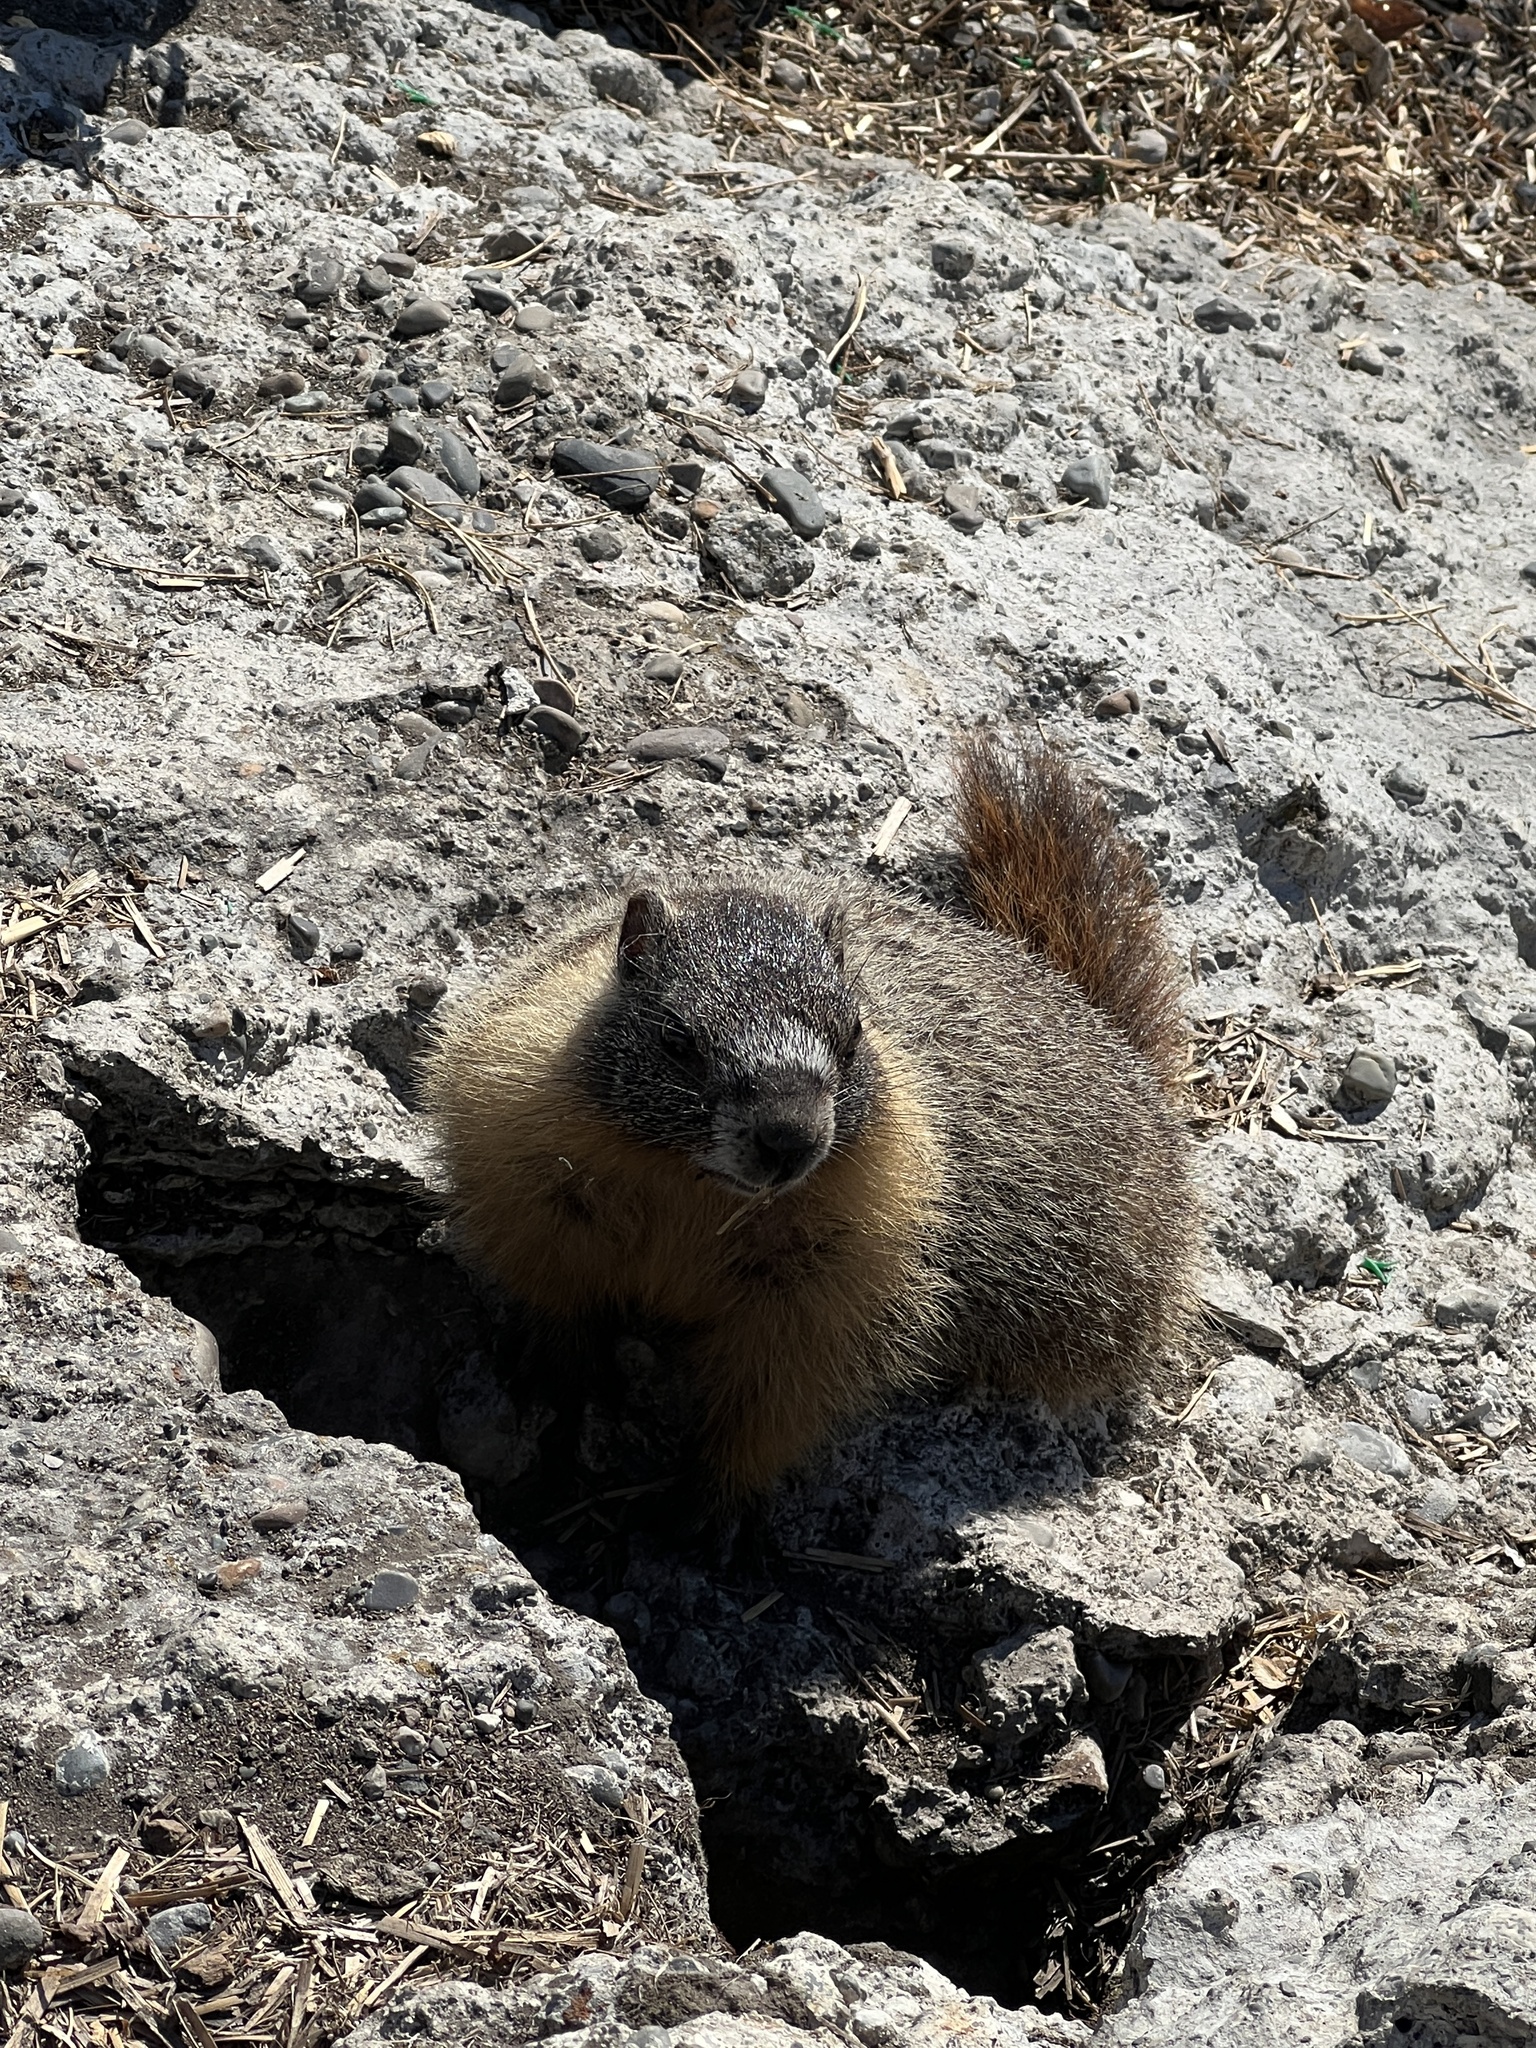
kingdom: Animalia
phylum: Chordata
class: Mammalia
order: Rodentia
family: Sciuridae
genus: Marmota
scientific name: Marmota flaviventris
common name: Yellow-bellied marmot
